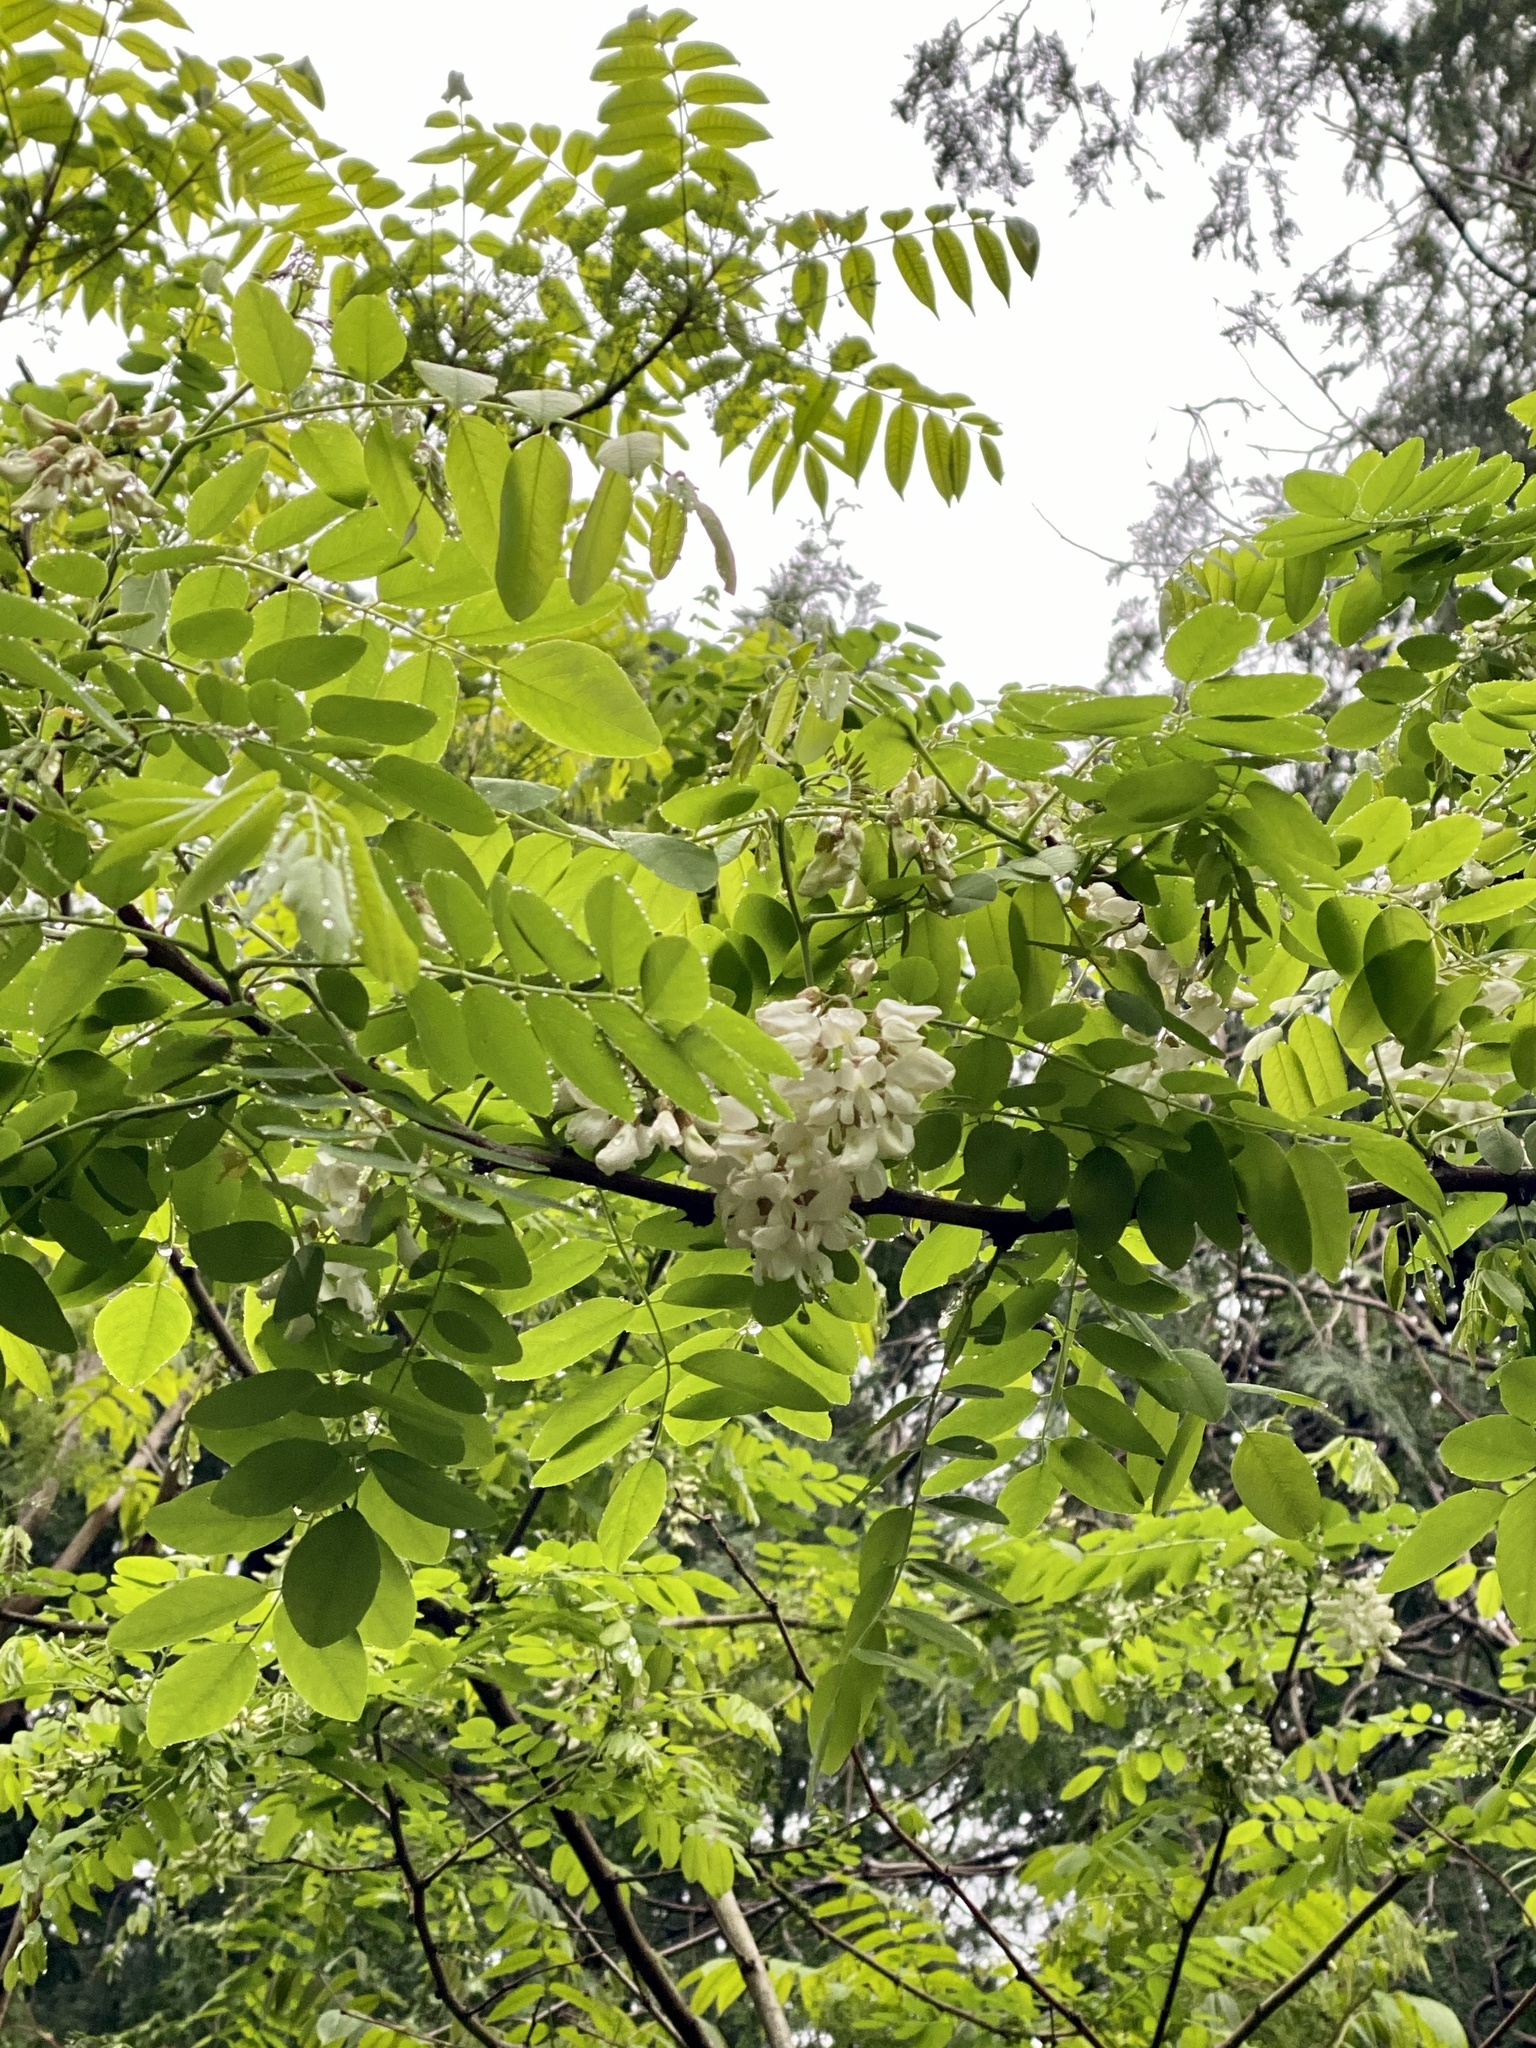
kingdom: Plantae
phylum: Tracheophyta
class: Magnoliopsida
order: Fabales
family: Fabaceae
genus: Robinia
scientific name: Robinia pseudoacacia
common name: Black locust
